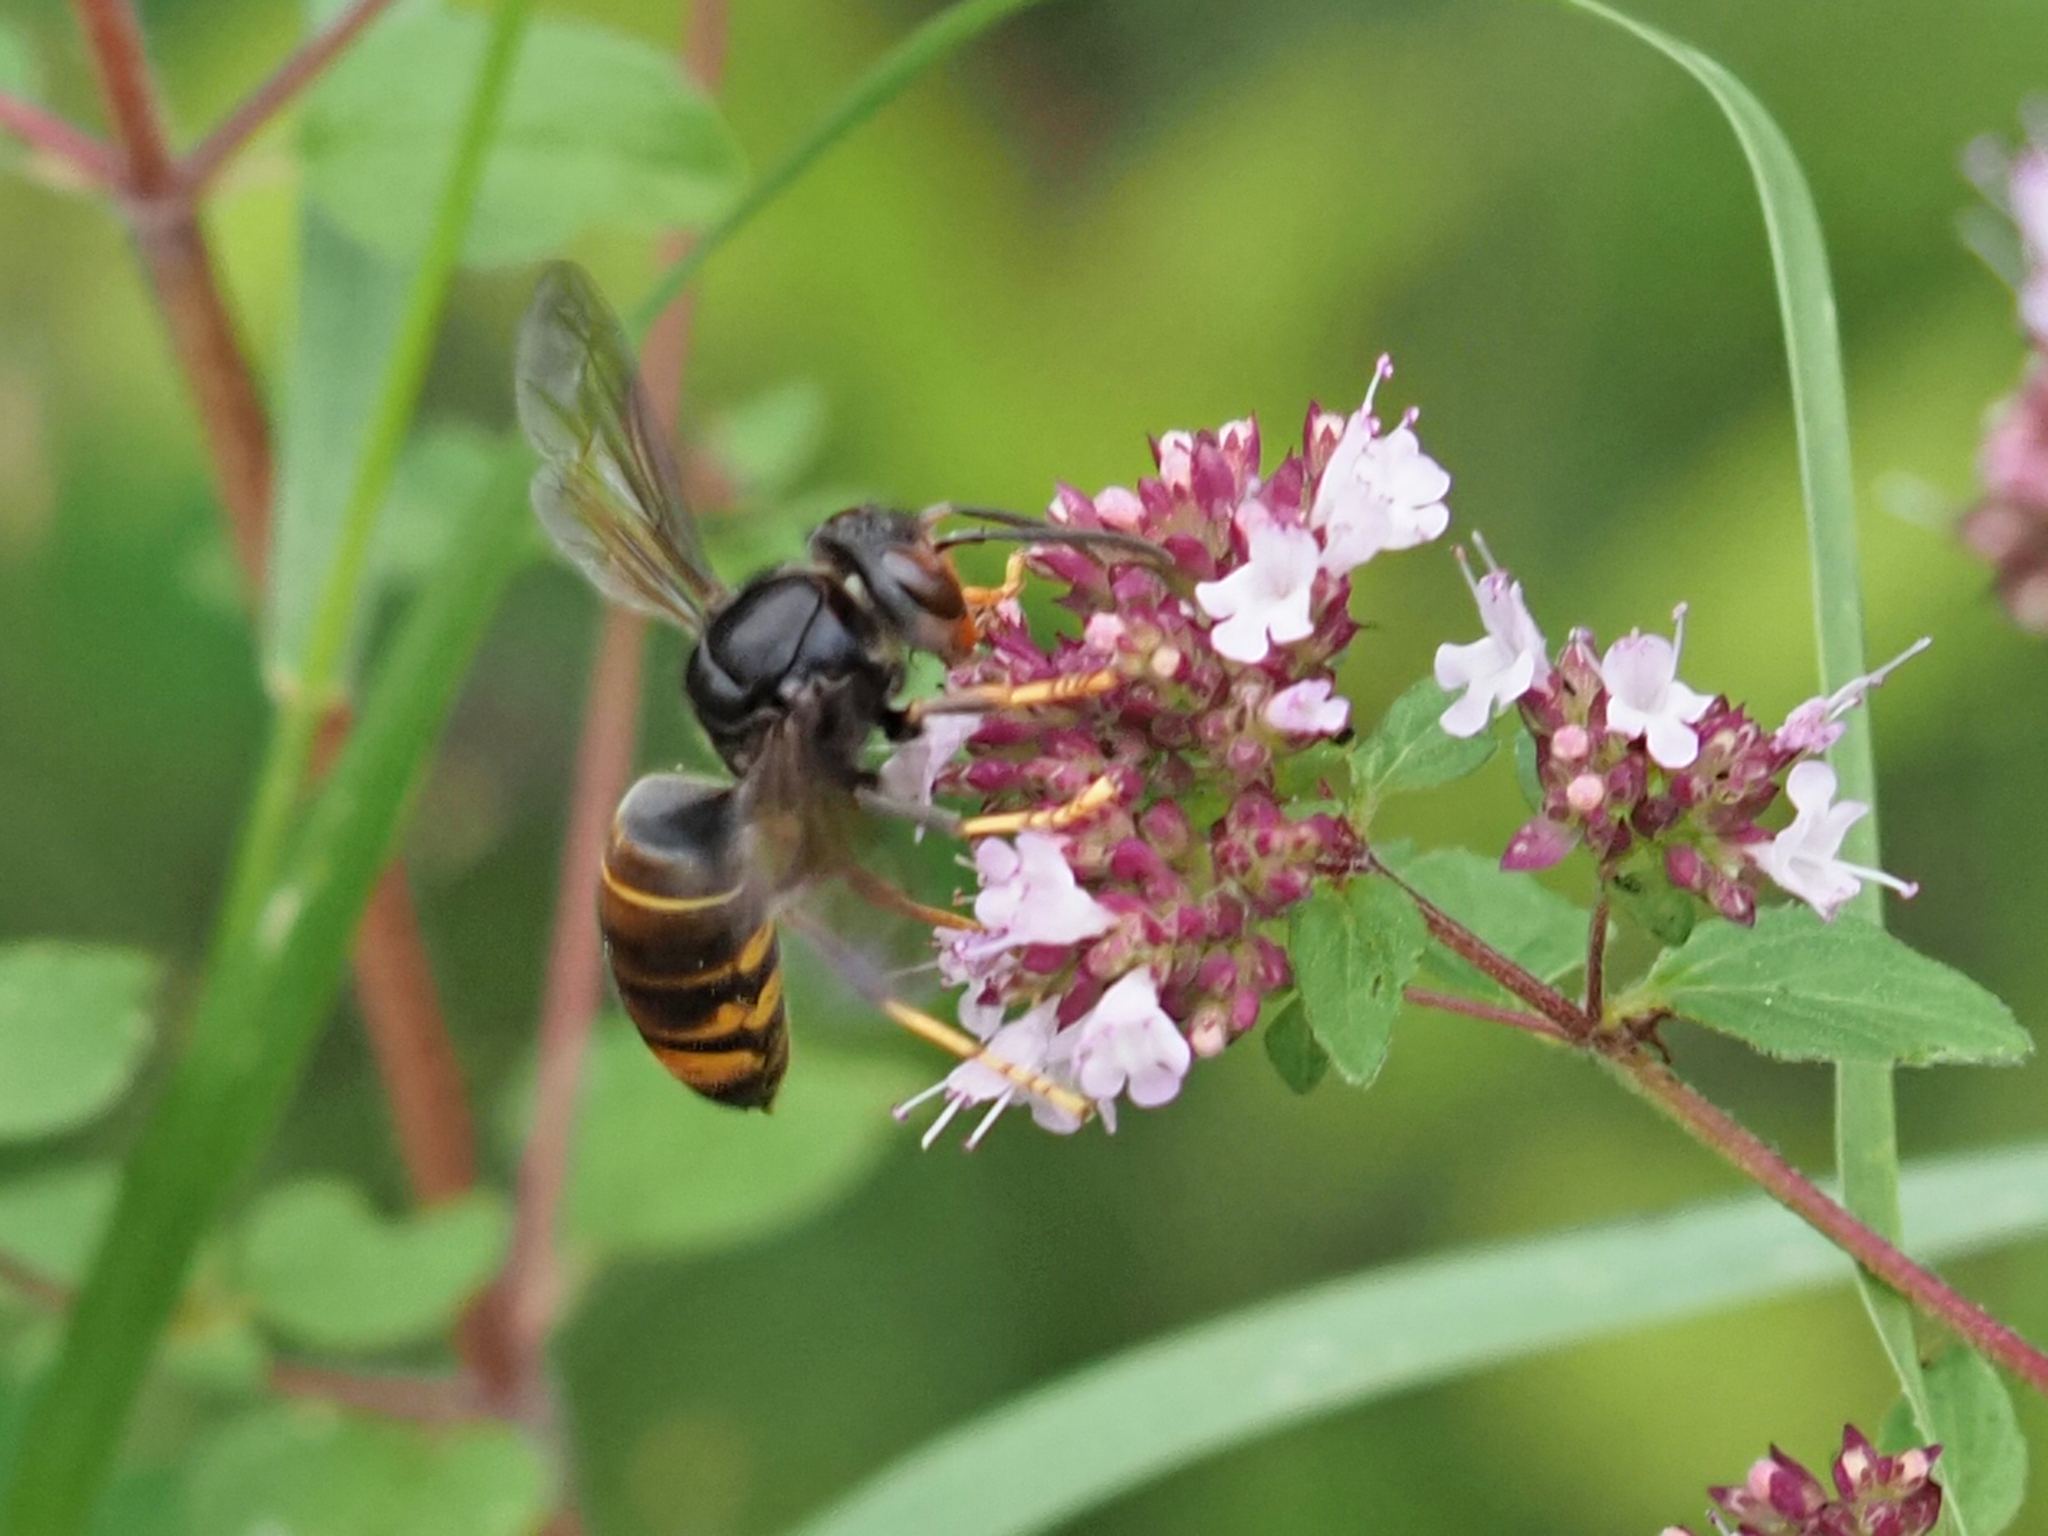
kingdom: Animalia
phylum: Arthropoda
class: Insecta
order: Hymenoptera
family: Vespidae
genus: Vespa
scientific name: Vespa velutina
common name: Asian hornet
